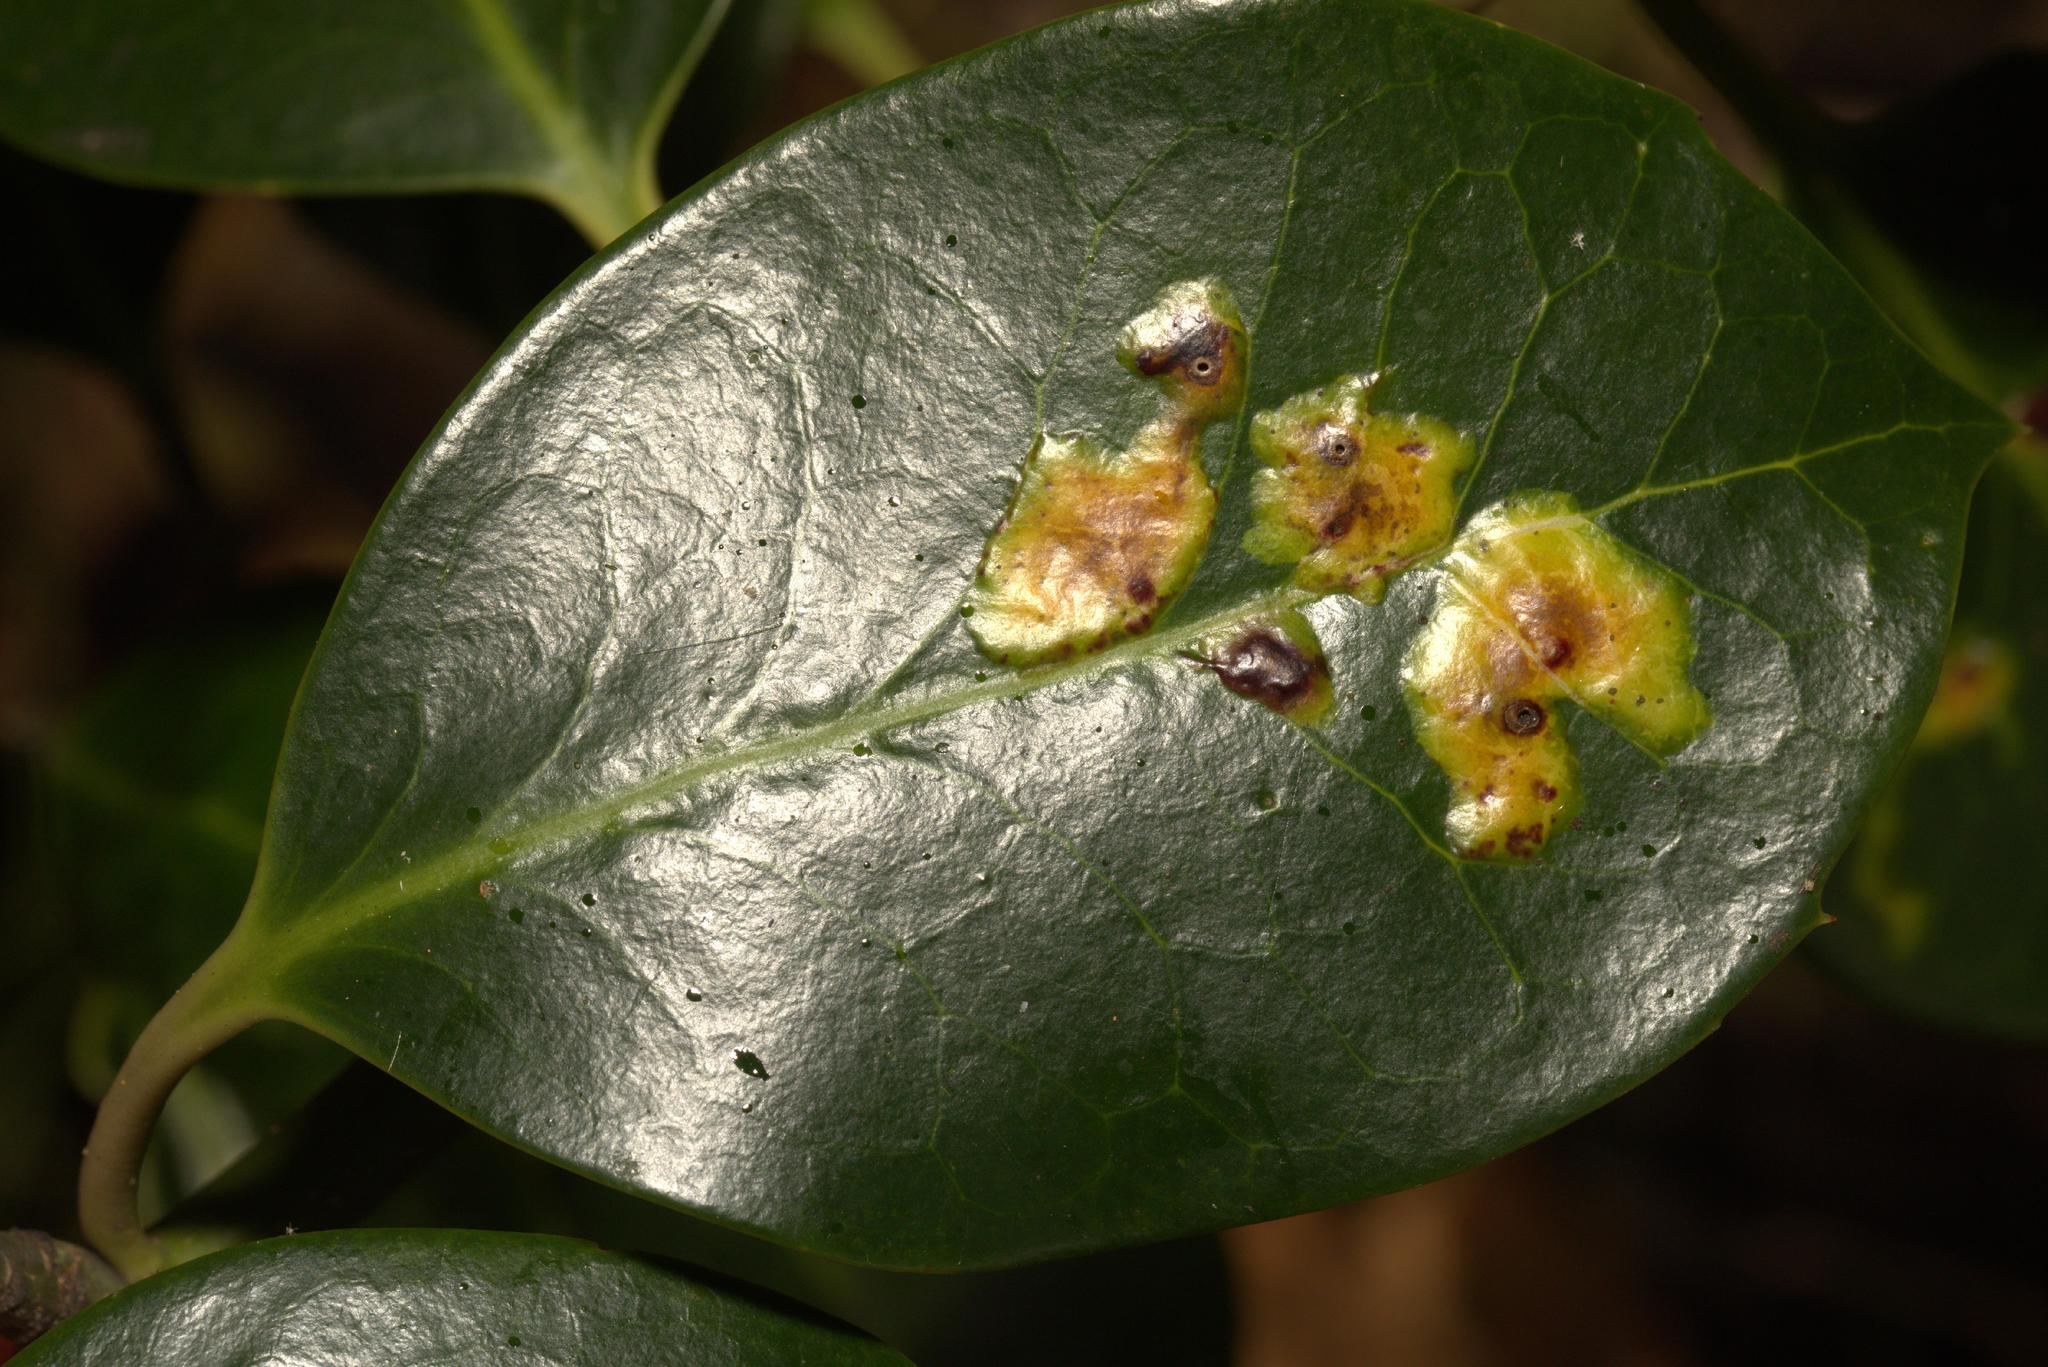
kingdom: Animalia
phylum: Arthropoda
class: Insecta
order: Diptera
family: Agromyzidae
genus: Phytomyza
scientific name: Phytomyza ilicis
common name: Holly leafminer
